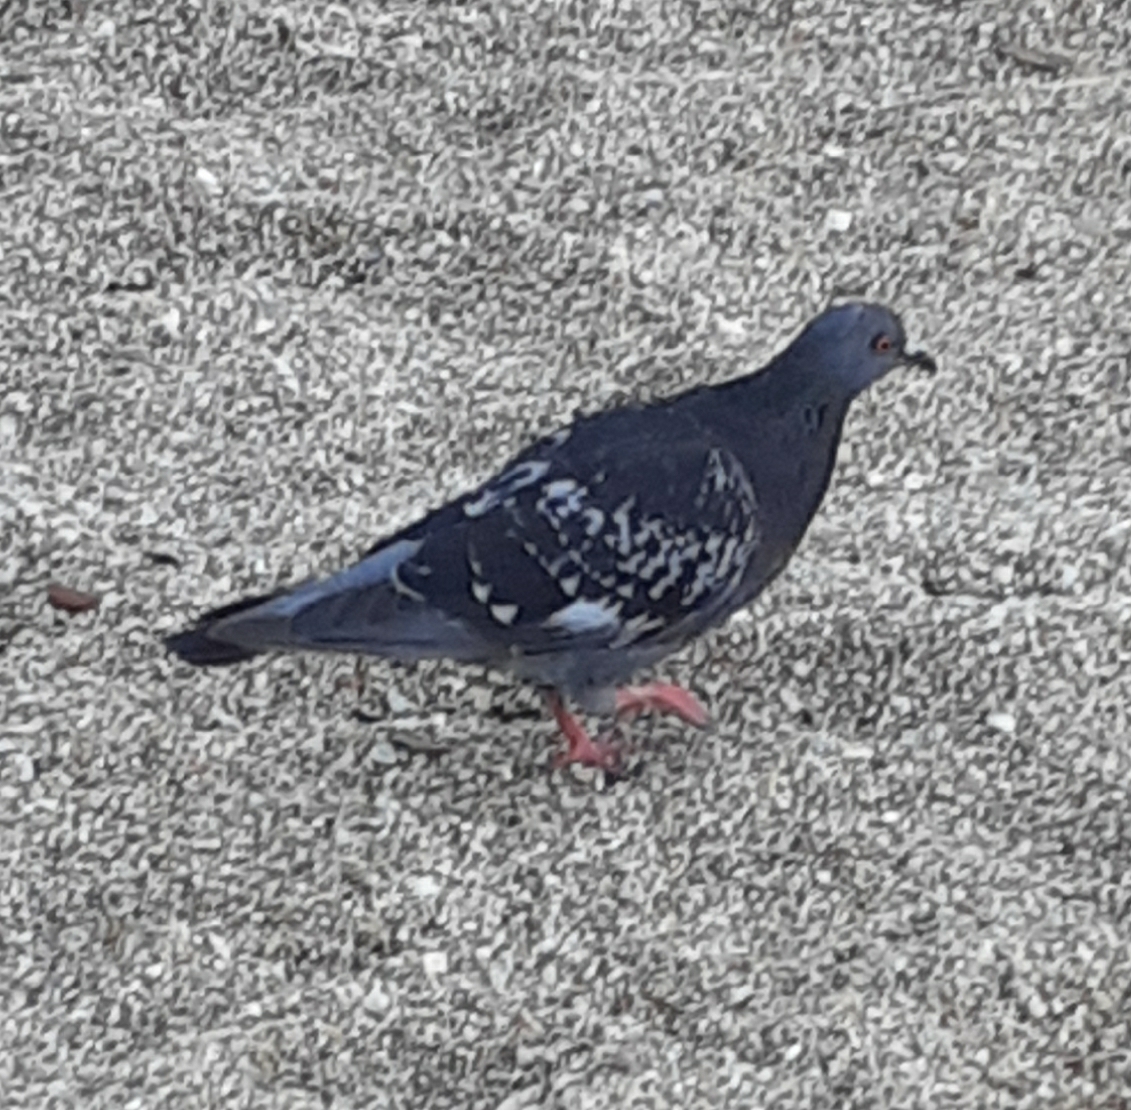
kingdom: Animalia
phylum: Chordata
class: Aves
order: Columbiformes
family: Columbidae
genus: Columba
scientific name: Columba livia
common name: Rock pigeon
